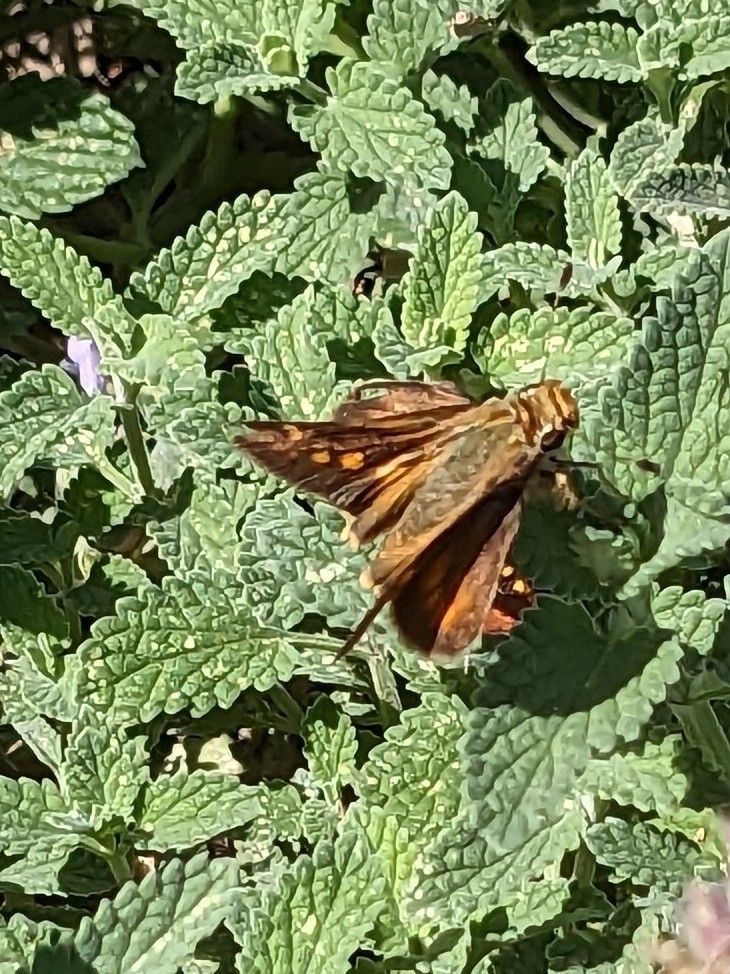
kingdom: Animalia
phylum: Arthropoda
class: Insecta
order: Lepidoptera
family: Hesperiidae
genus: Lon
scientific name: Lon melane
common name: Umber skipper
